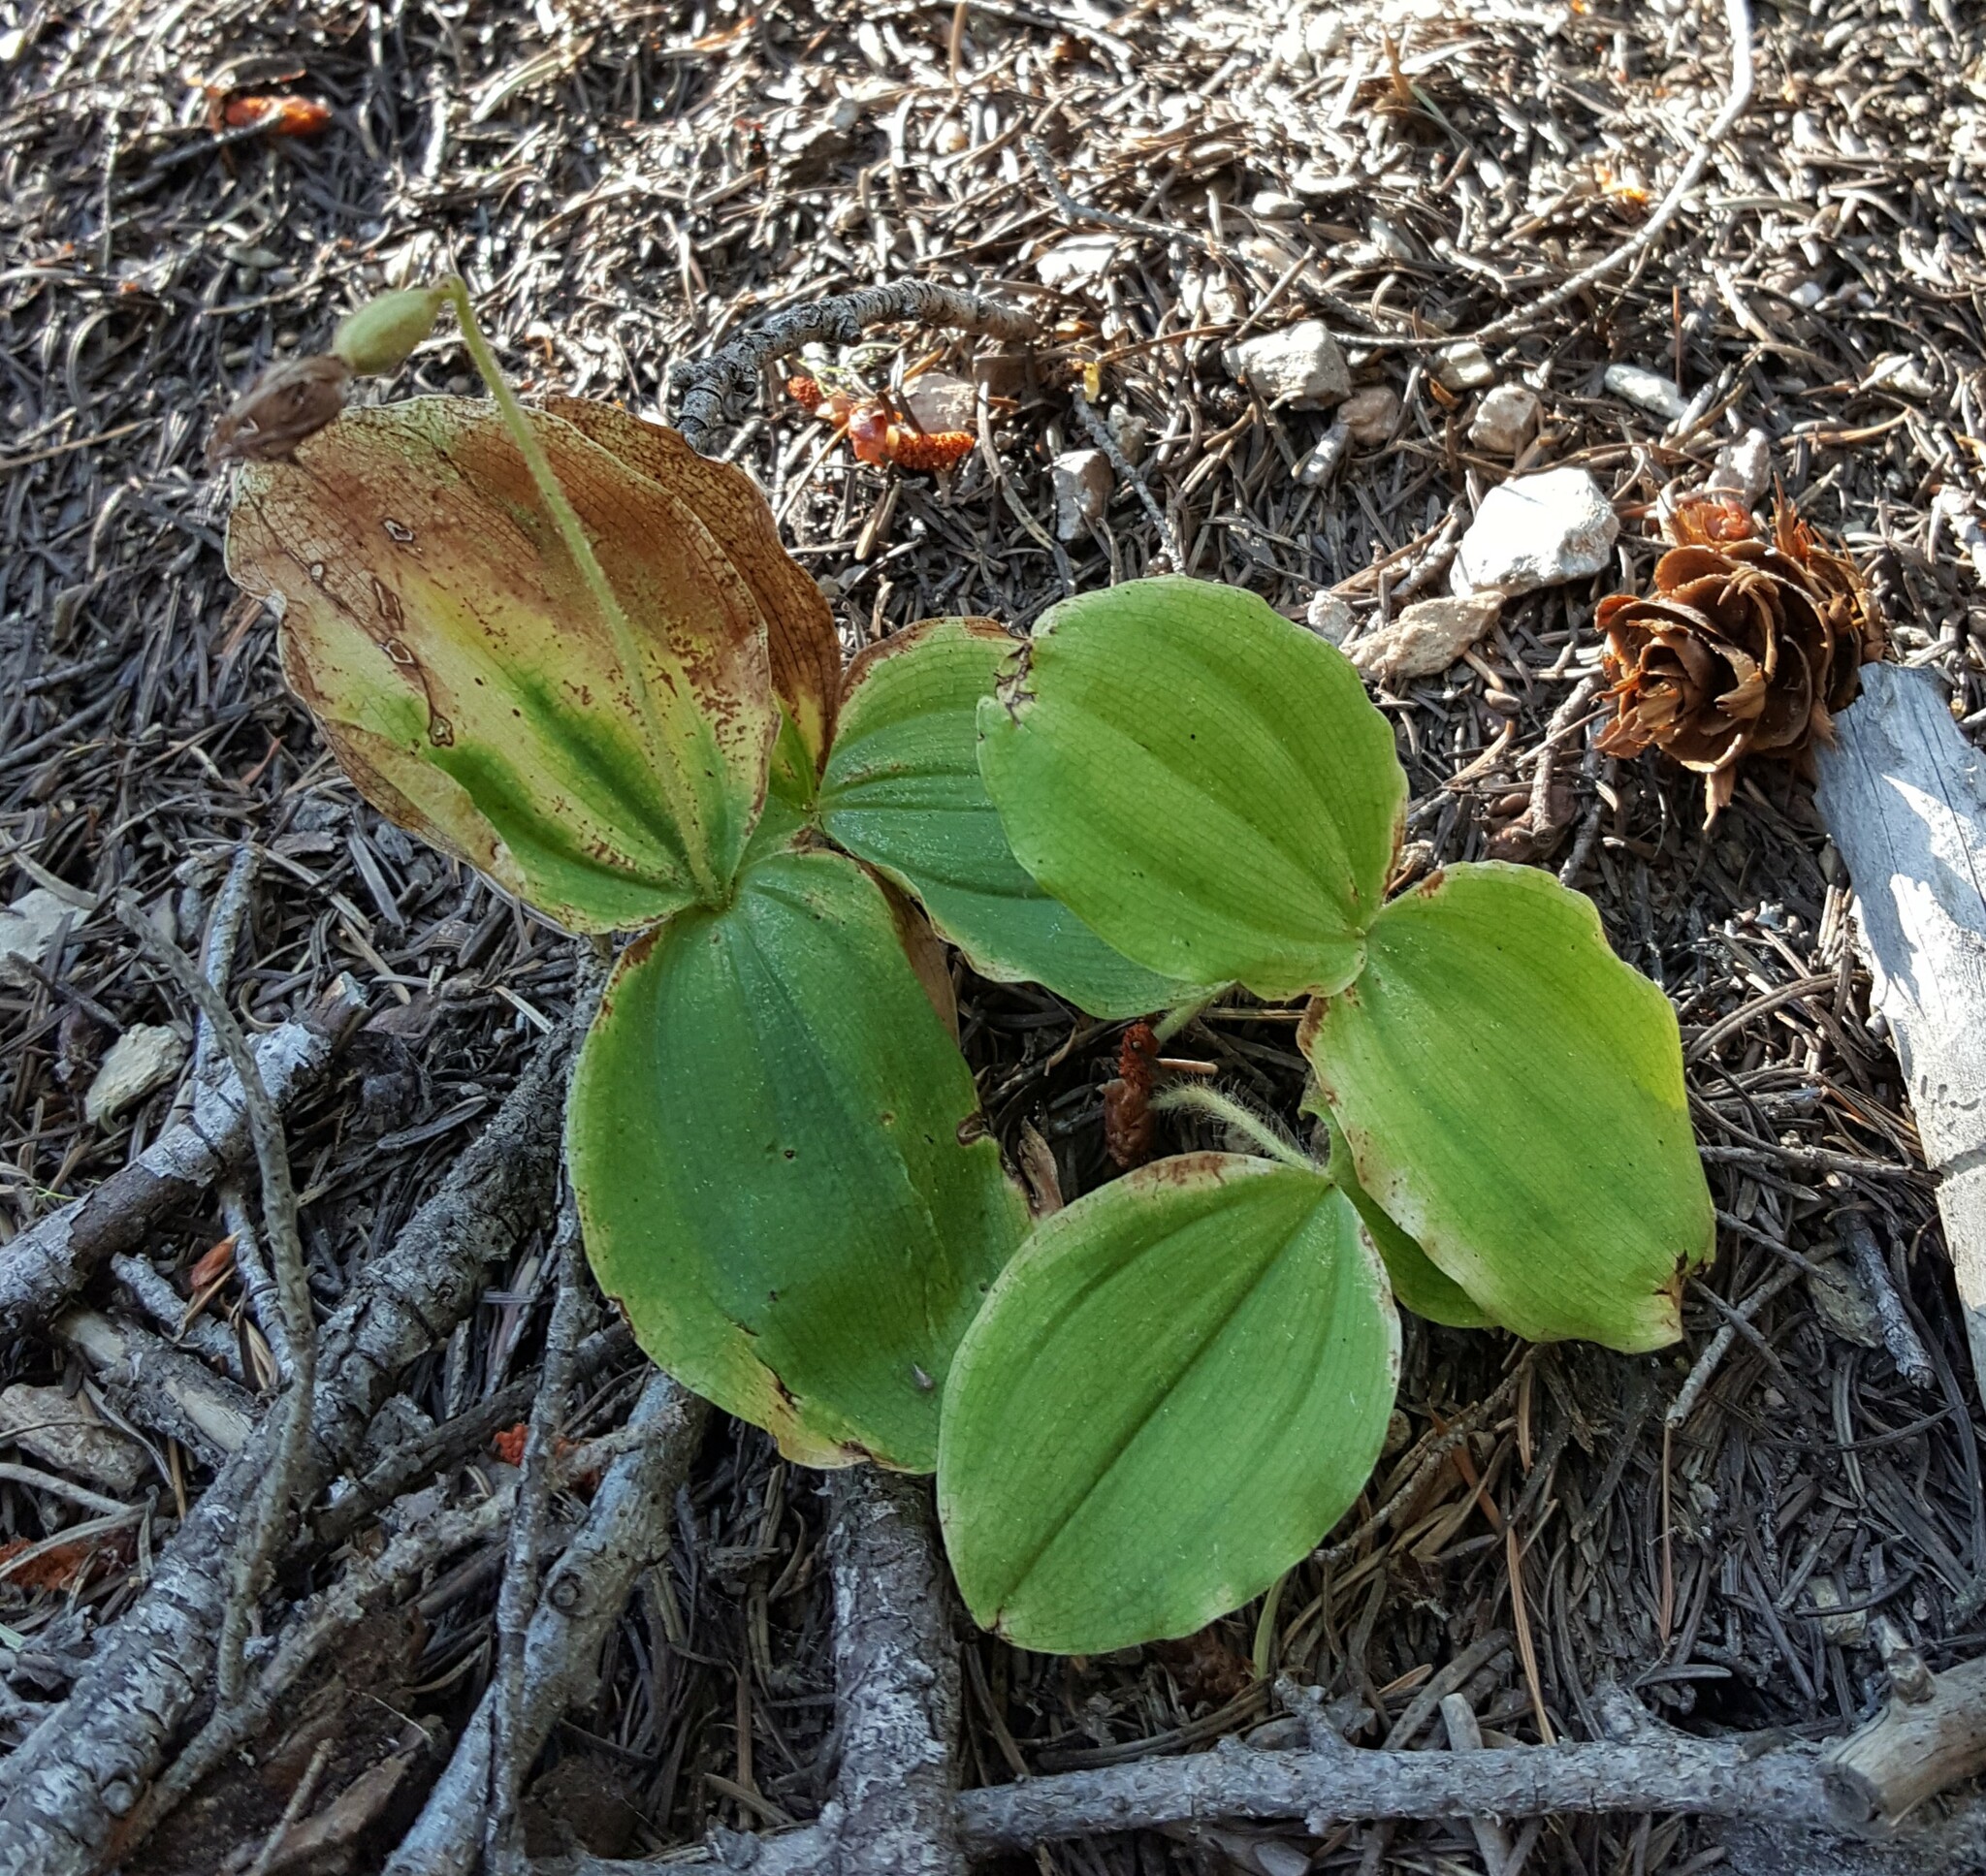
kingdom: Plantae
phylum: Tracheophyta
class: Liliopsida
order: Asparagales
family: Orchidaceae
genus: Cypripedium
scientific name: Cypripedium fasciculatum
